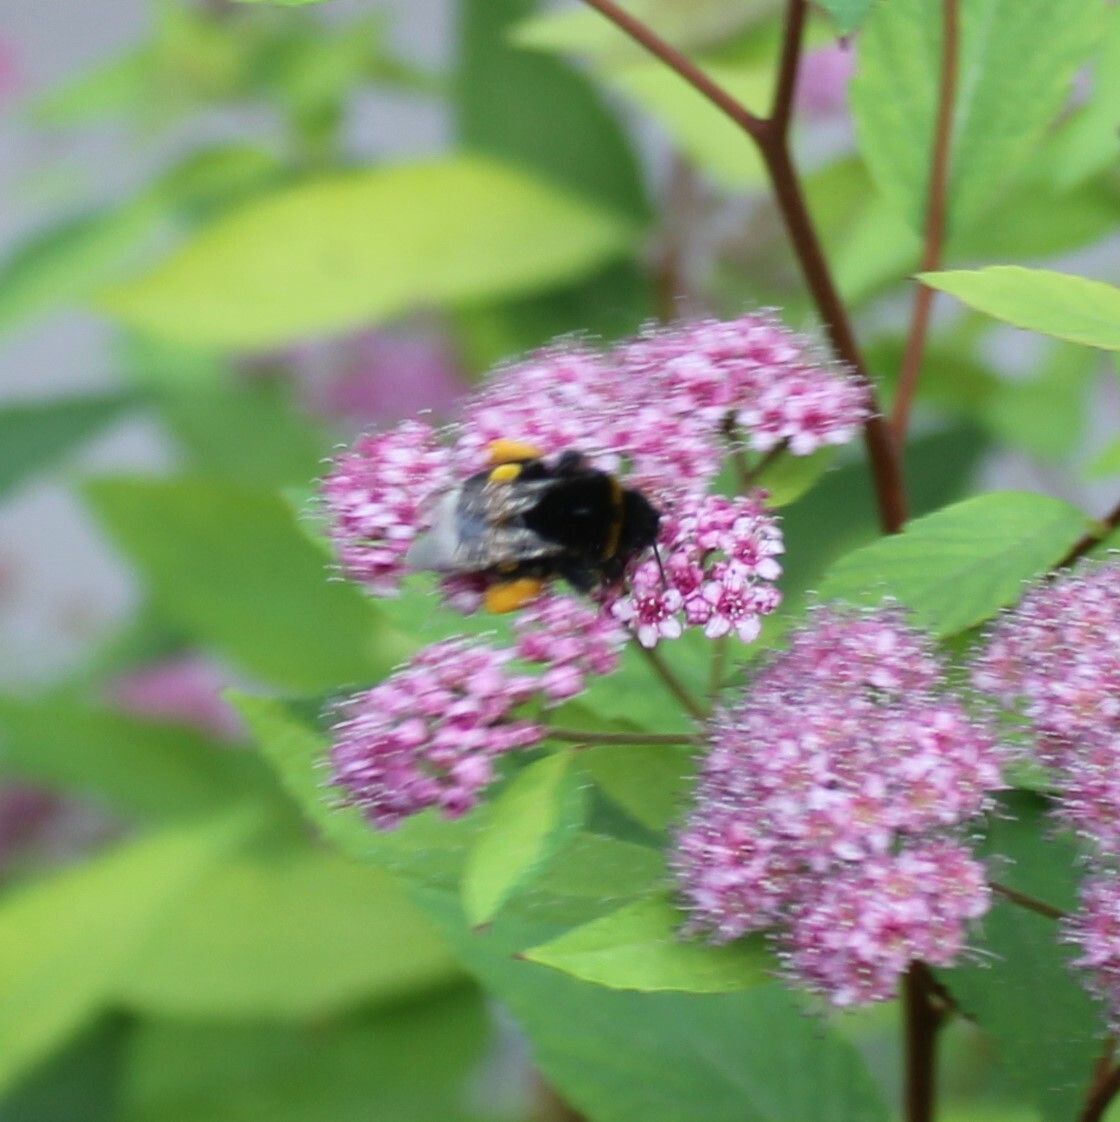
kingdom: Animalia
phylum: Arthropoda
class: Insecta
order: Hymenoptera
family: Apidae
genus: Bombus
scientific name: Bombus
